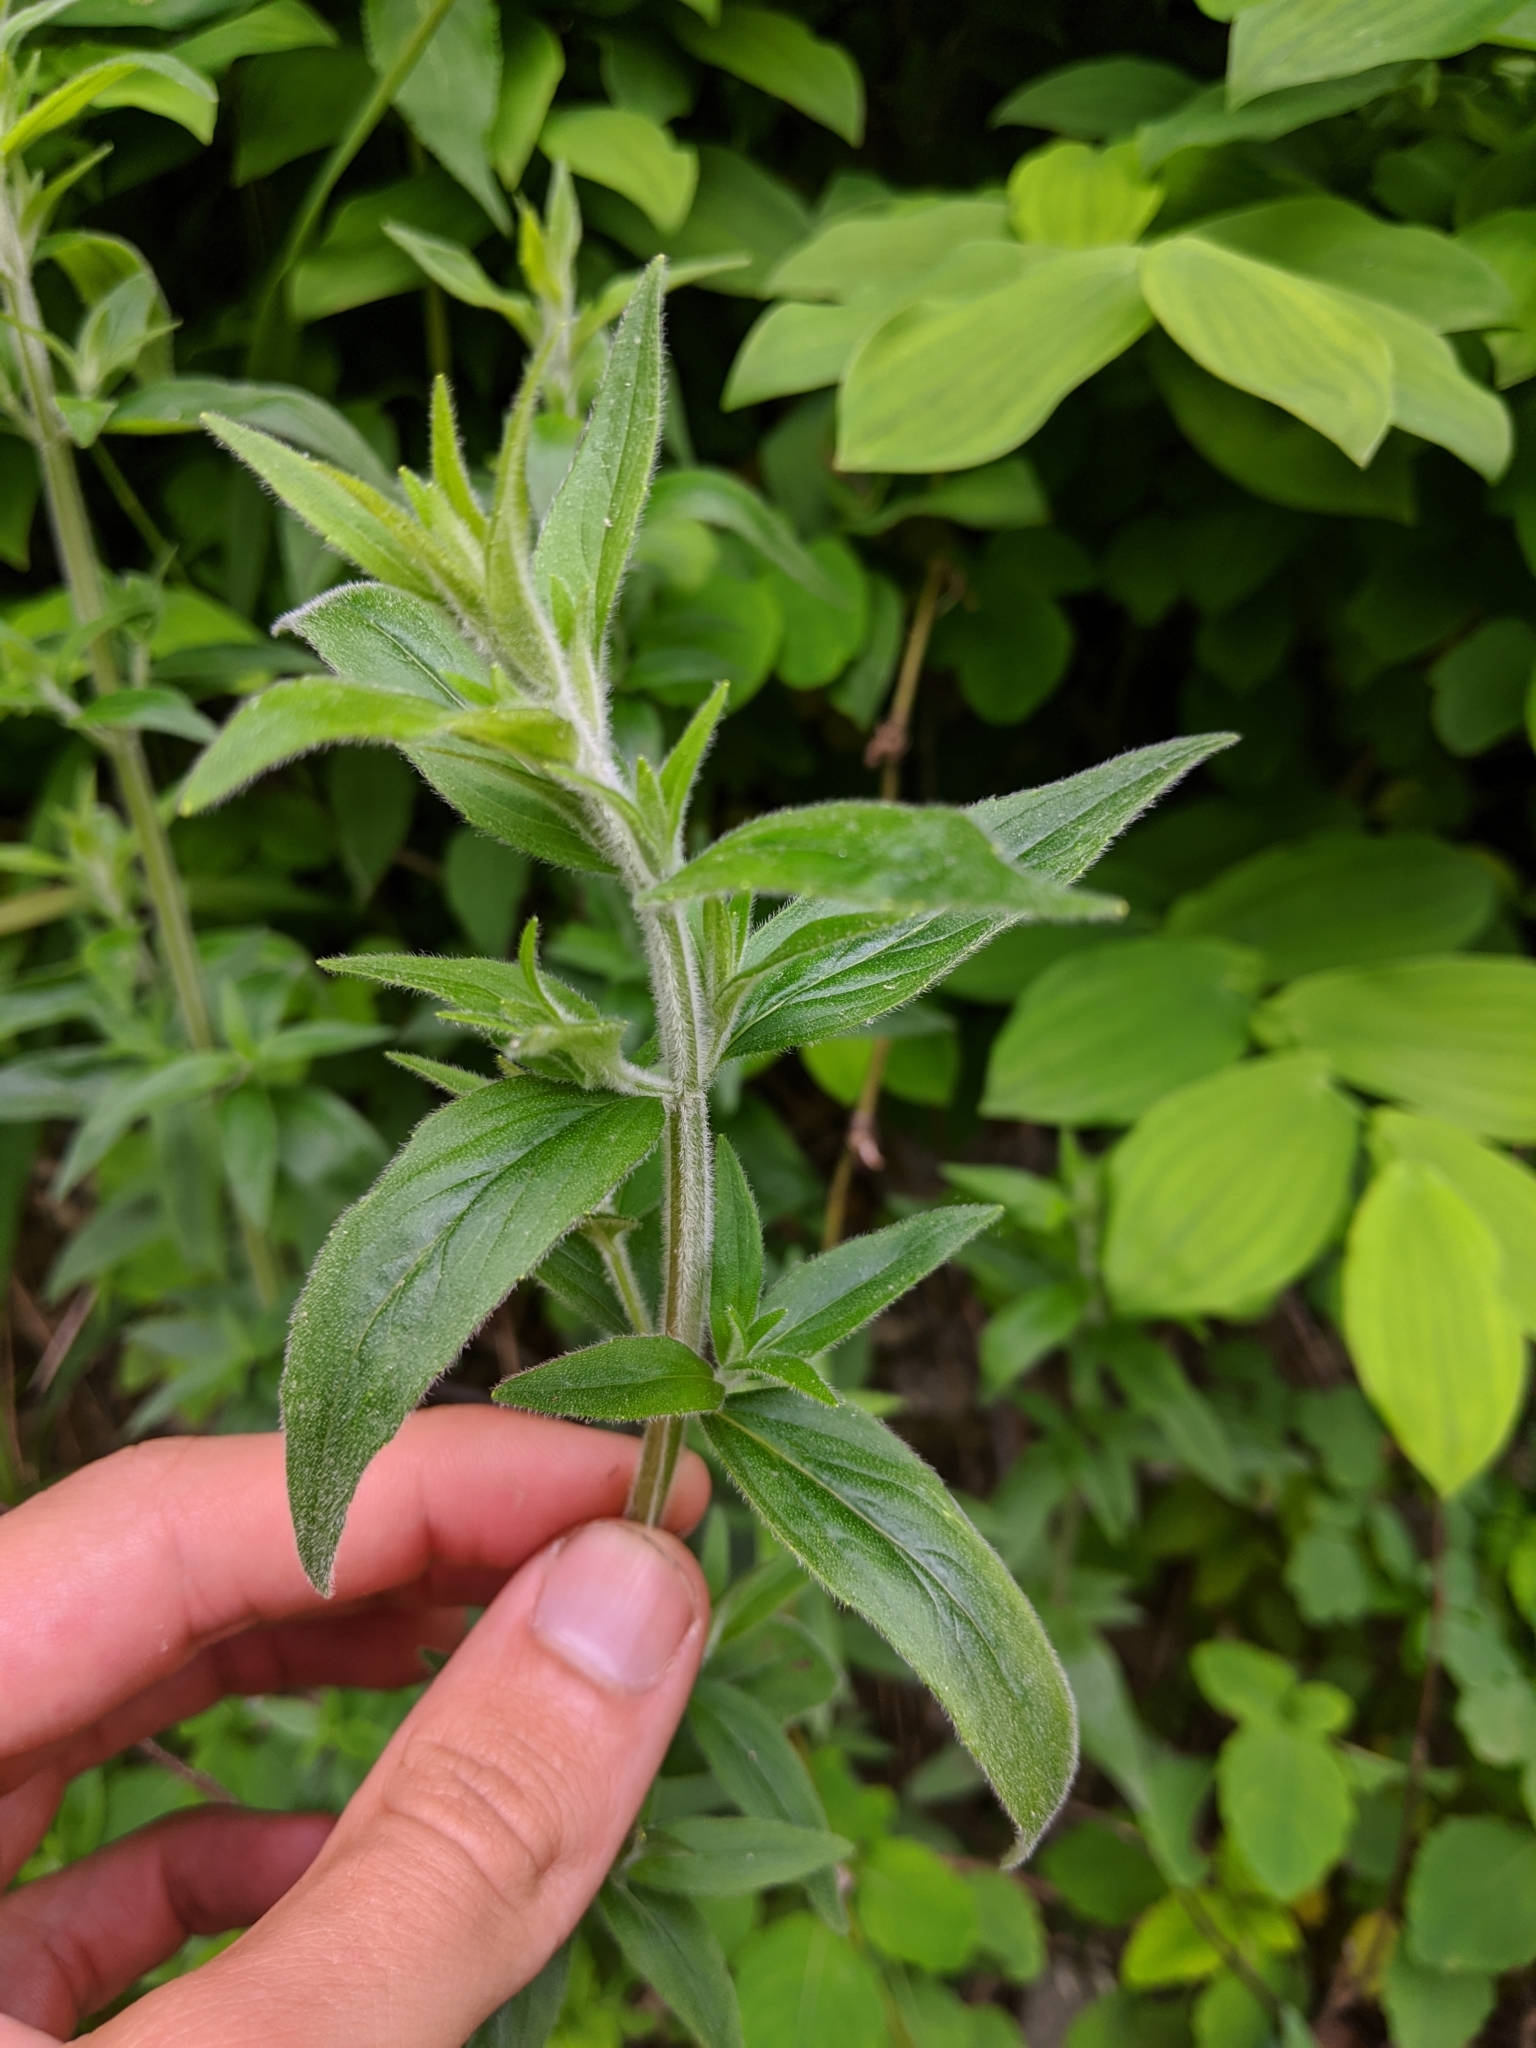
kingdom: Plantae
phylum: Tracheophyta
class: Magnoliopsida
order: Lamiales
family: Lamiaceae
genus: Pycnanthemum
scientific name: Pycnanthemum verticillatum
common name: Whorled mountain-mint
